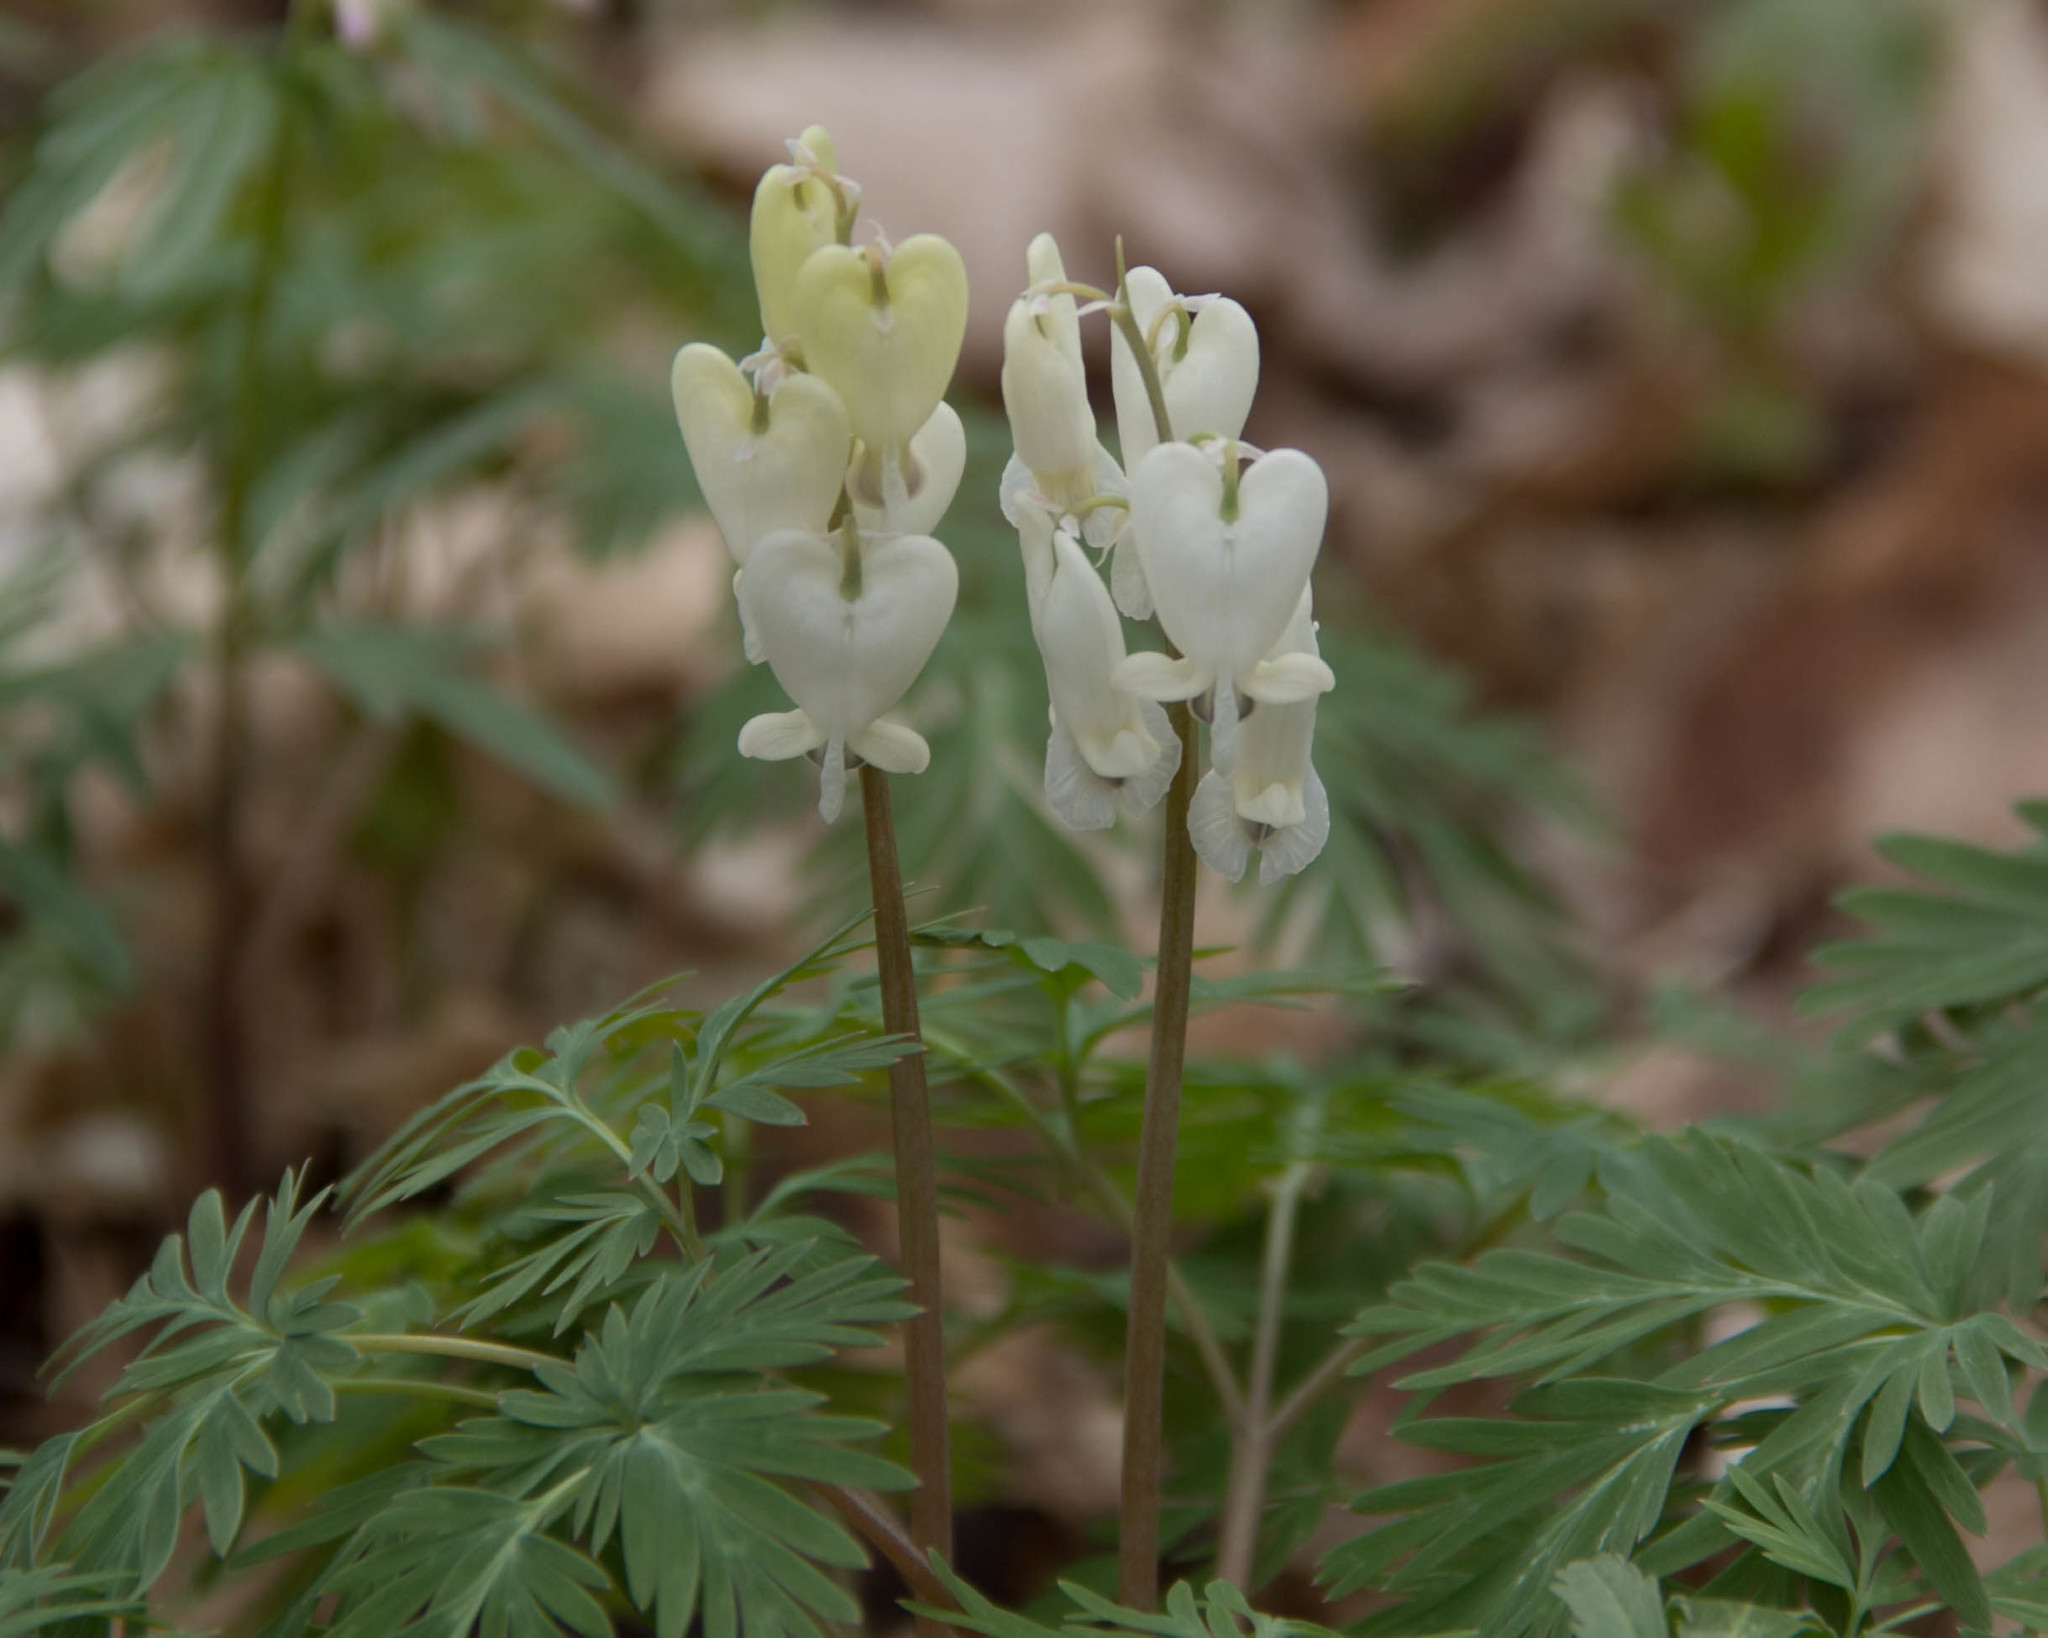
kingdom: Plantae
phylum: Tracheophyta
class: Magnoliopsida
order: Ranunculales
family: Papaveraceae
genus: Dicentra
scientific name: Dicentra canadensis
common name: Squirrel-corn
